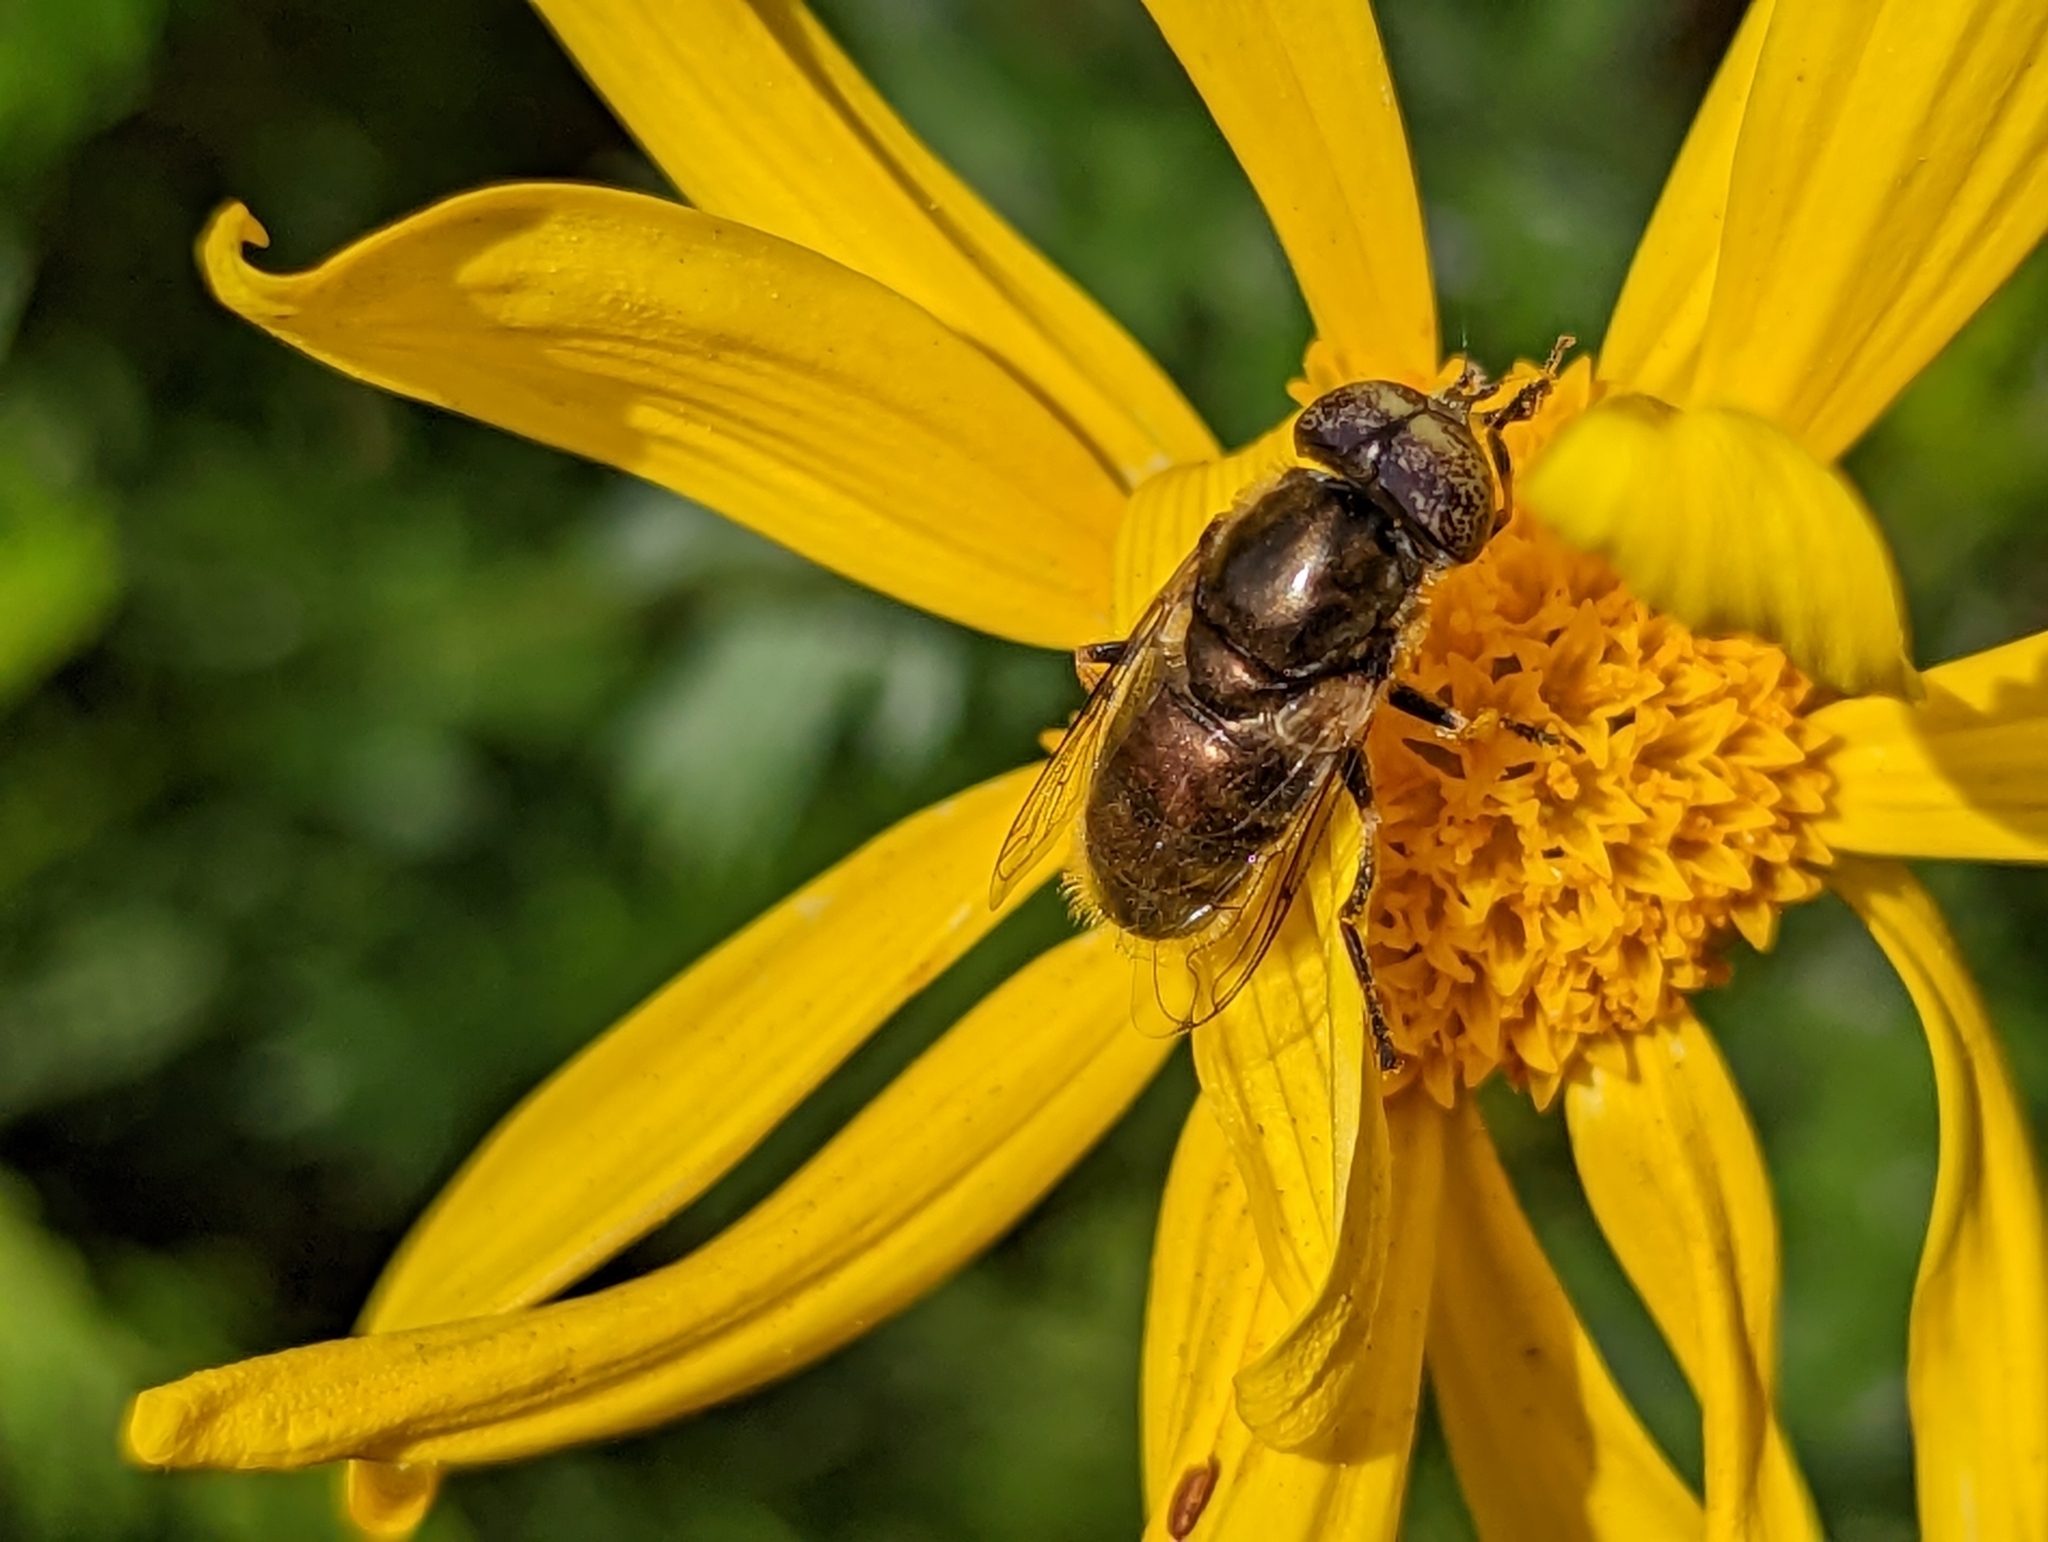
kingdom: Animalia
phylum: Arthropoda
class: Insecta
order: Diptera
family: Syrphidae
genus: Eristalinus
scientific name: Eristalinus aeneus
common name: Syrphid fly
